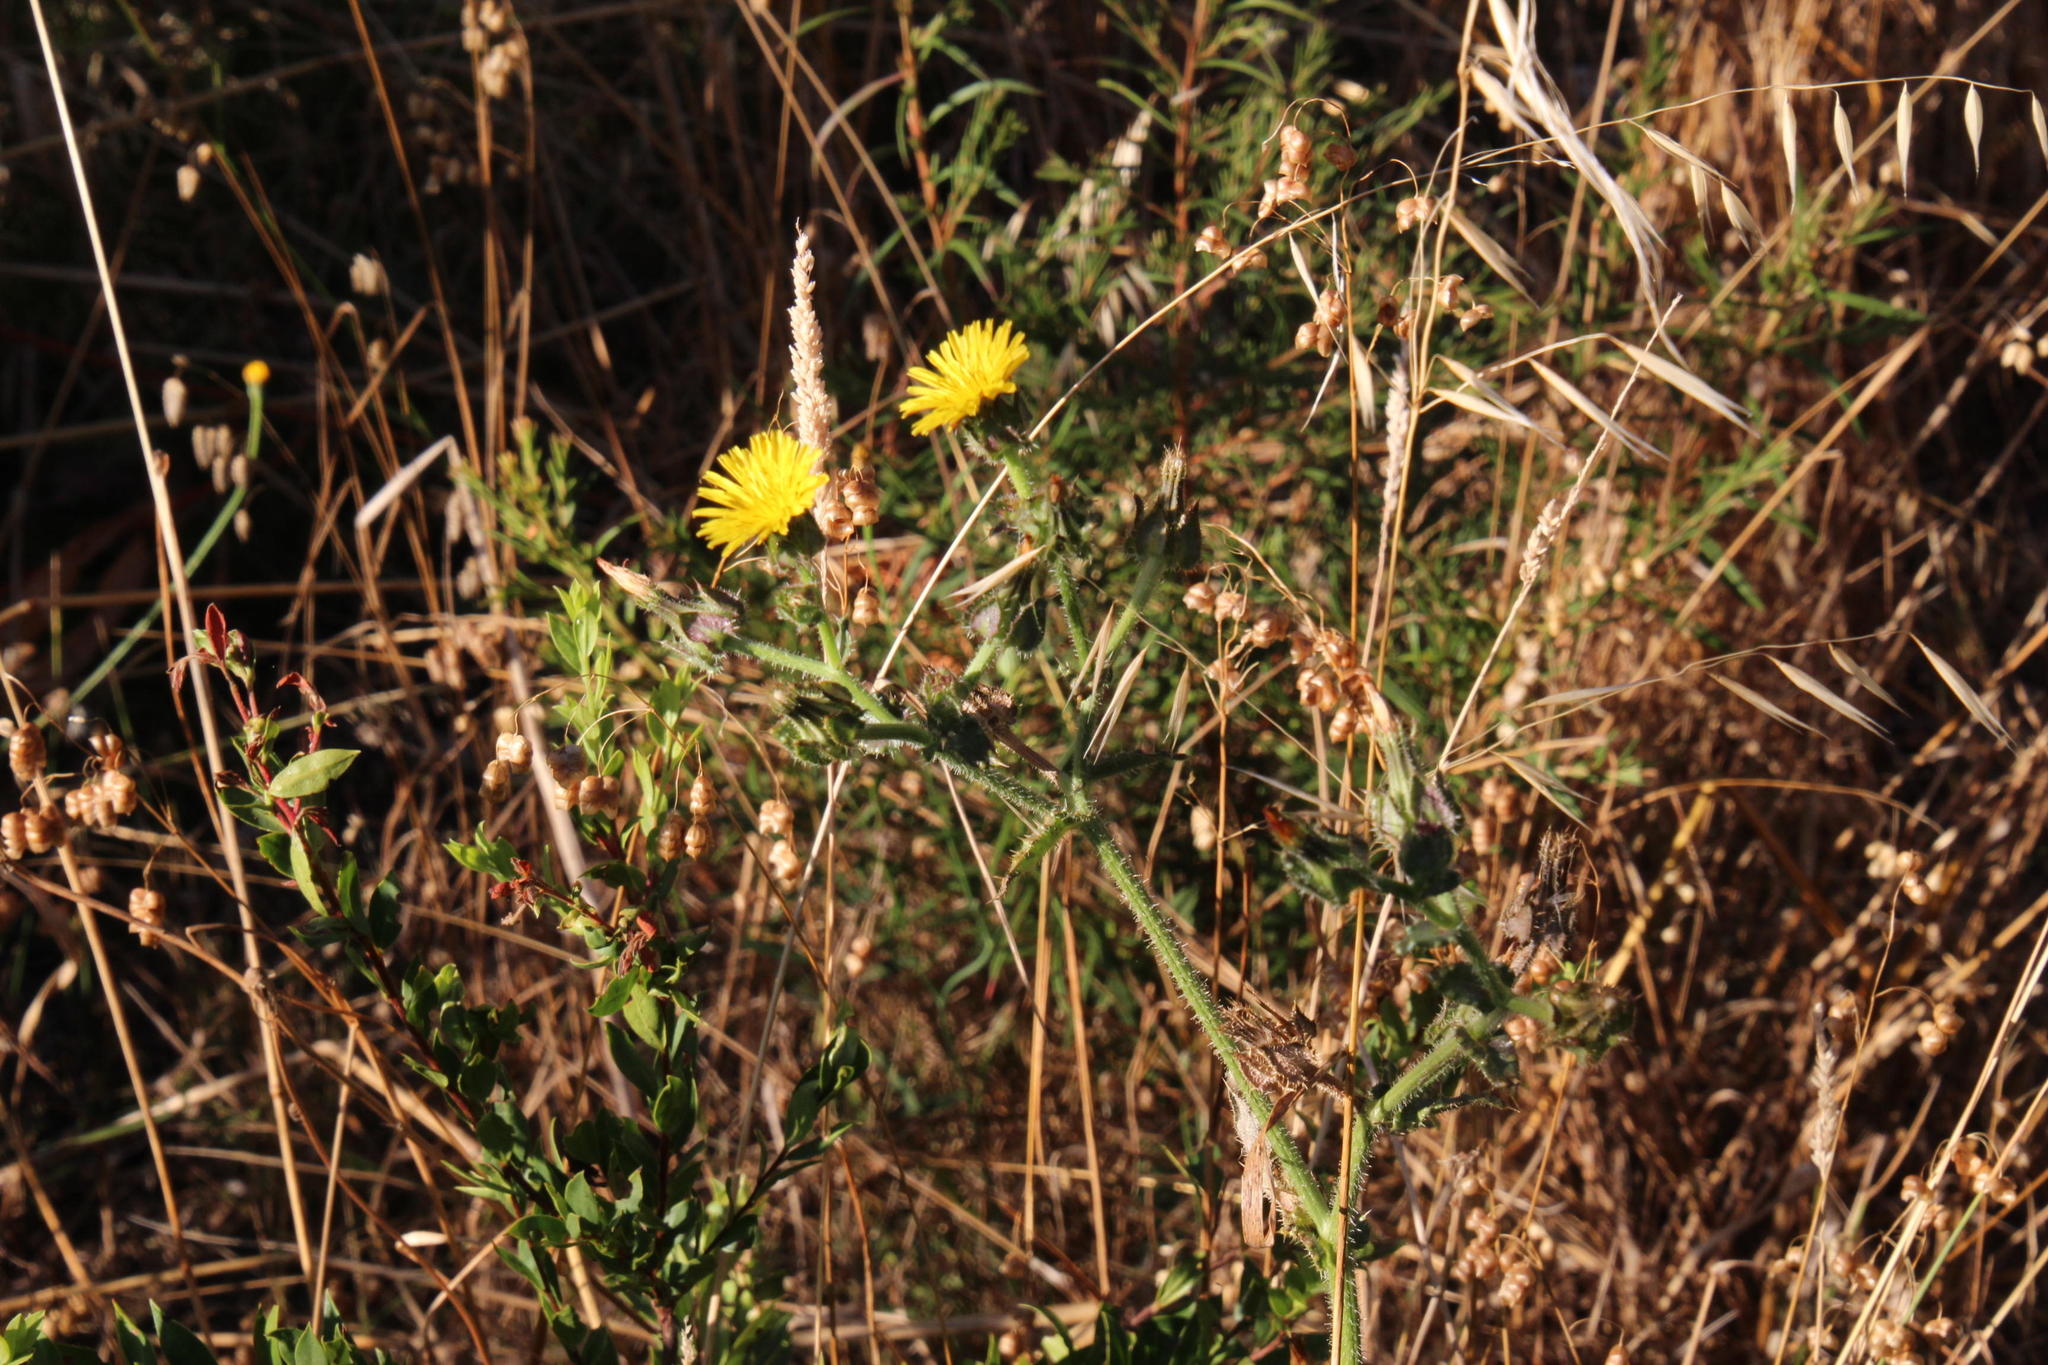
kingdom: Plantae
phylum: Tracheophyta
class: Magnoliopsida
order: Asterales
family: Asteraceae
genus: Helminthotheca
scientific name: Helminthotheca echioides
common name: Ox-tongue
